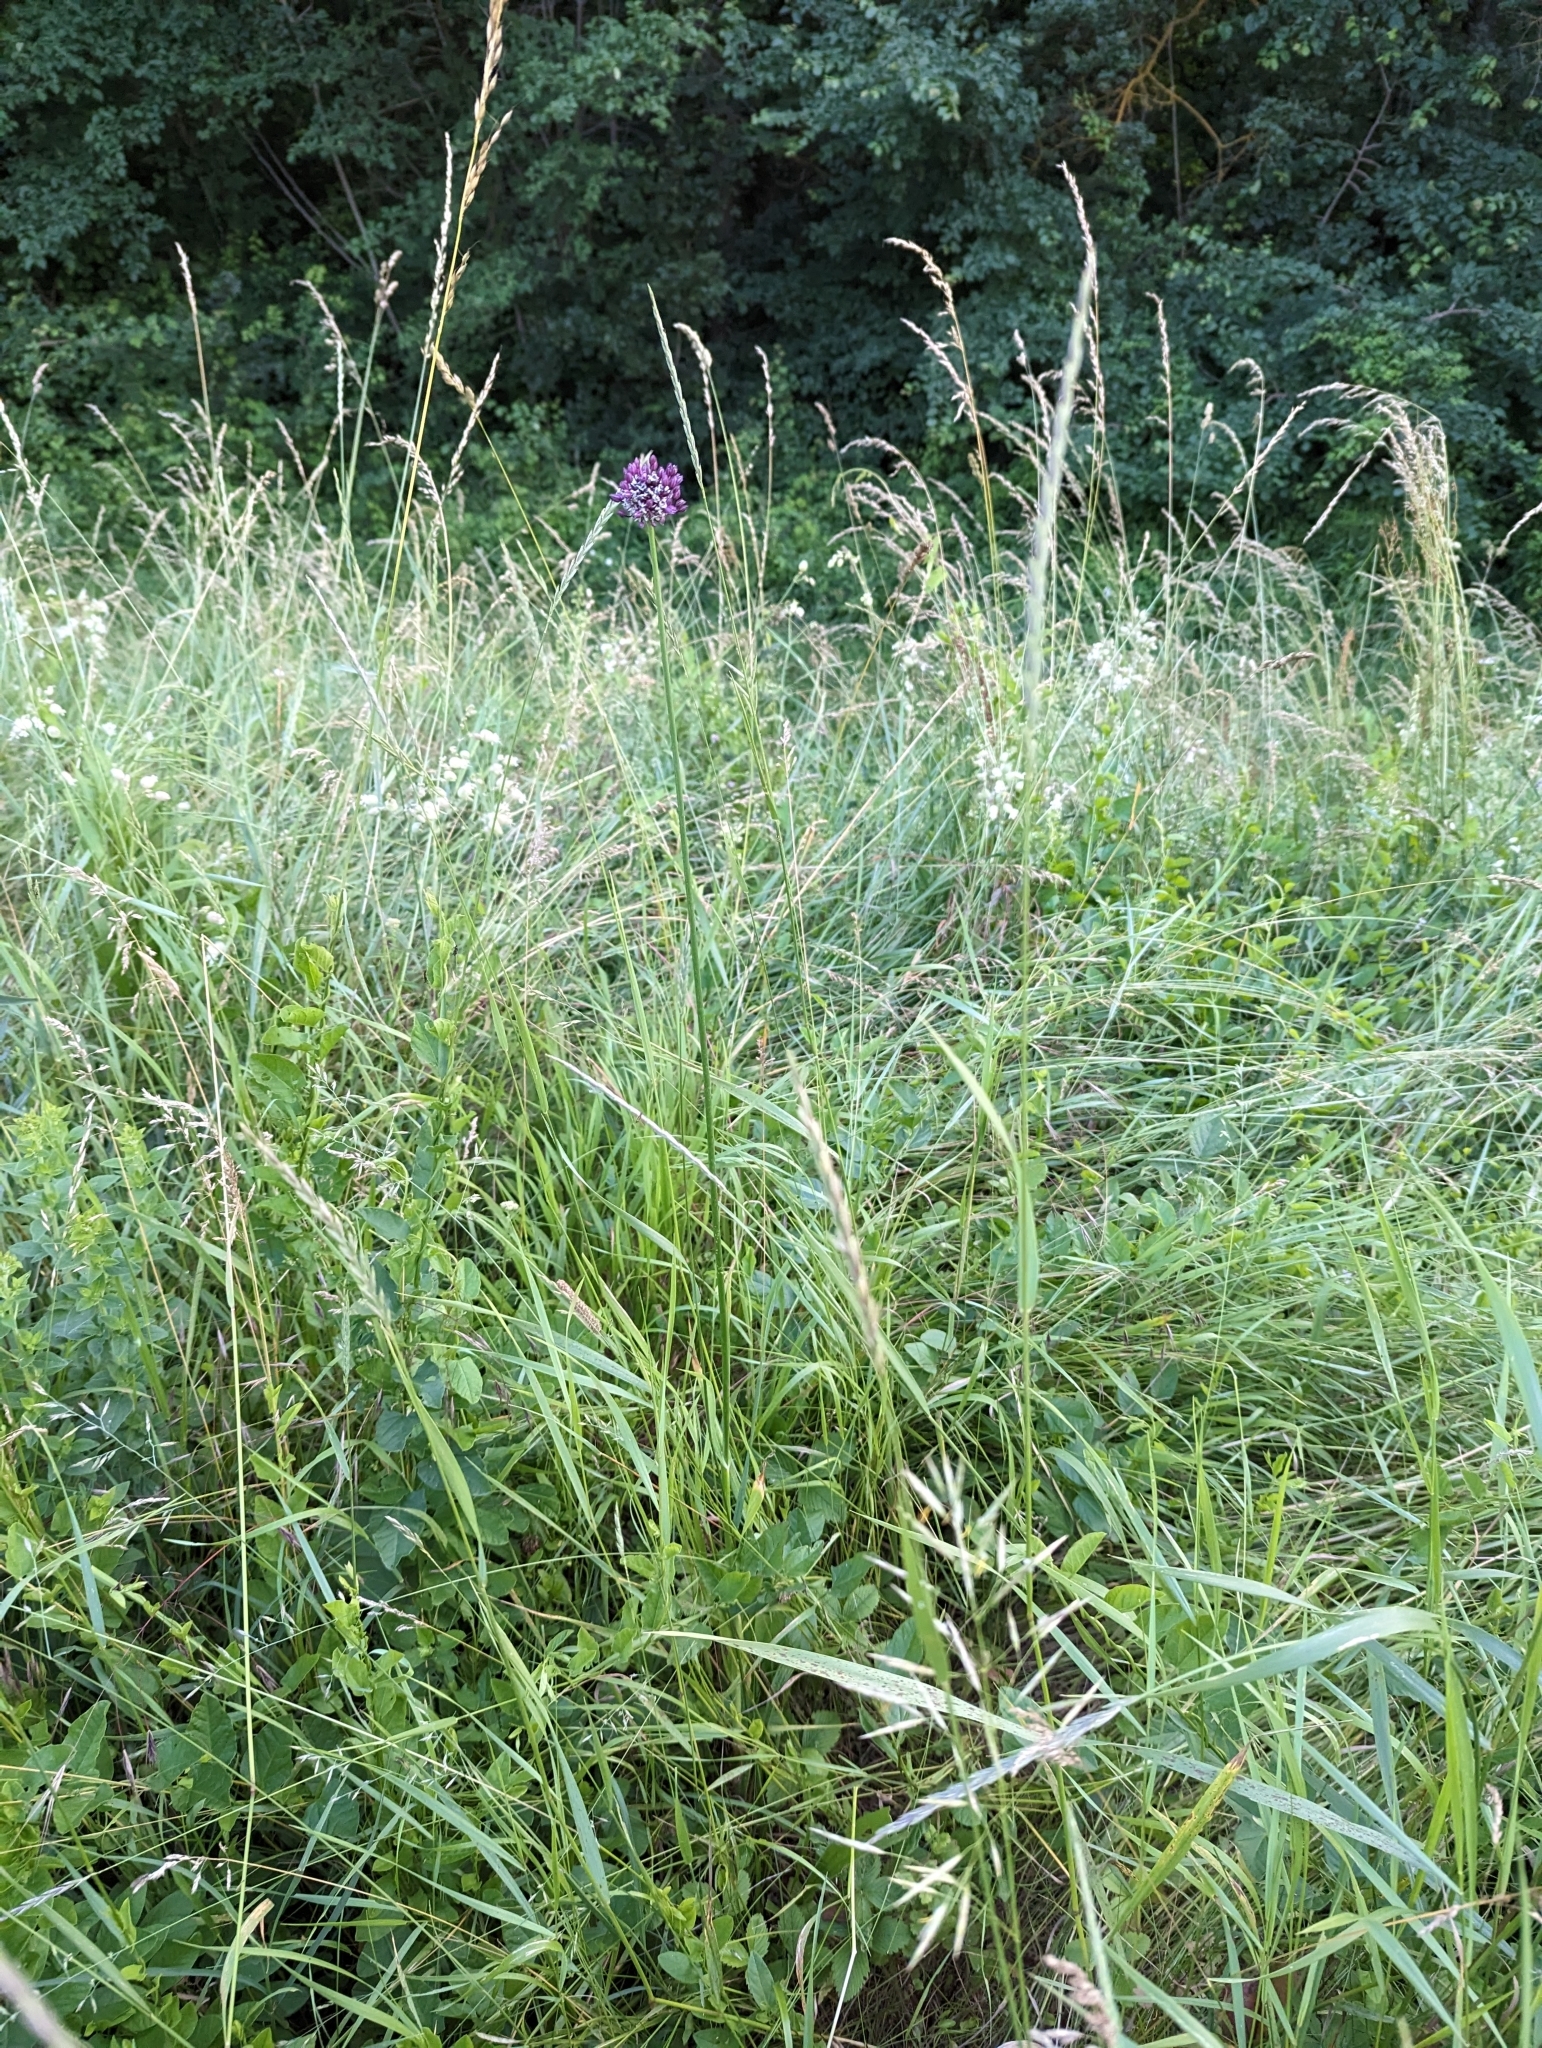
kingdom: Plantae
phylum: Tracheophyta
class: Liliopsida
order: Asparagales
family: Amaryllidaceae
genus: Allium
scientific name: Allium scorodoprasum
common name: Sand leek
